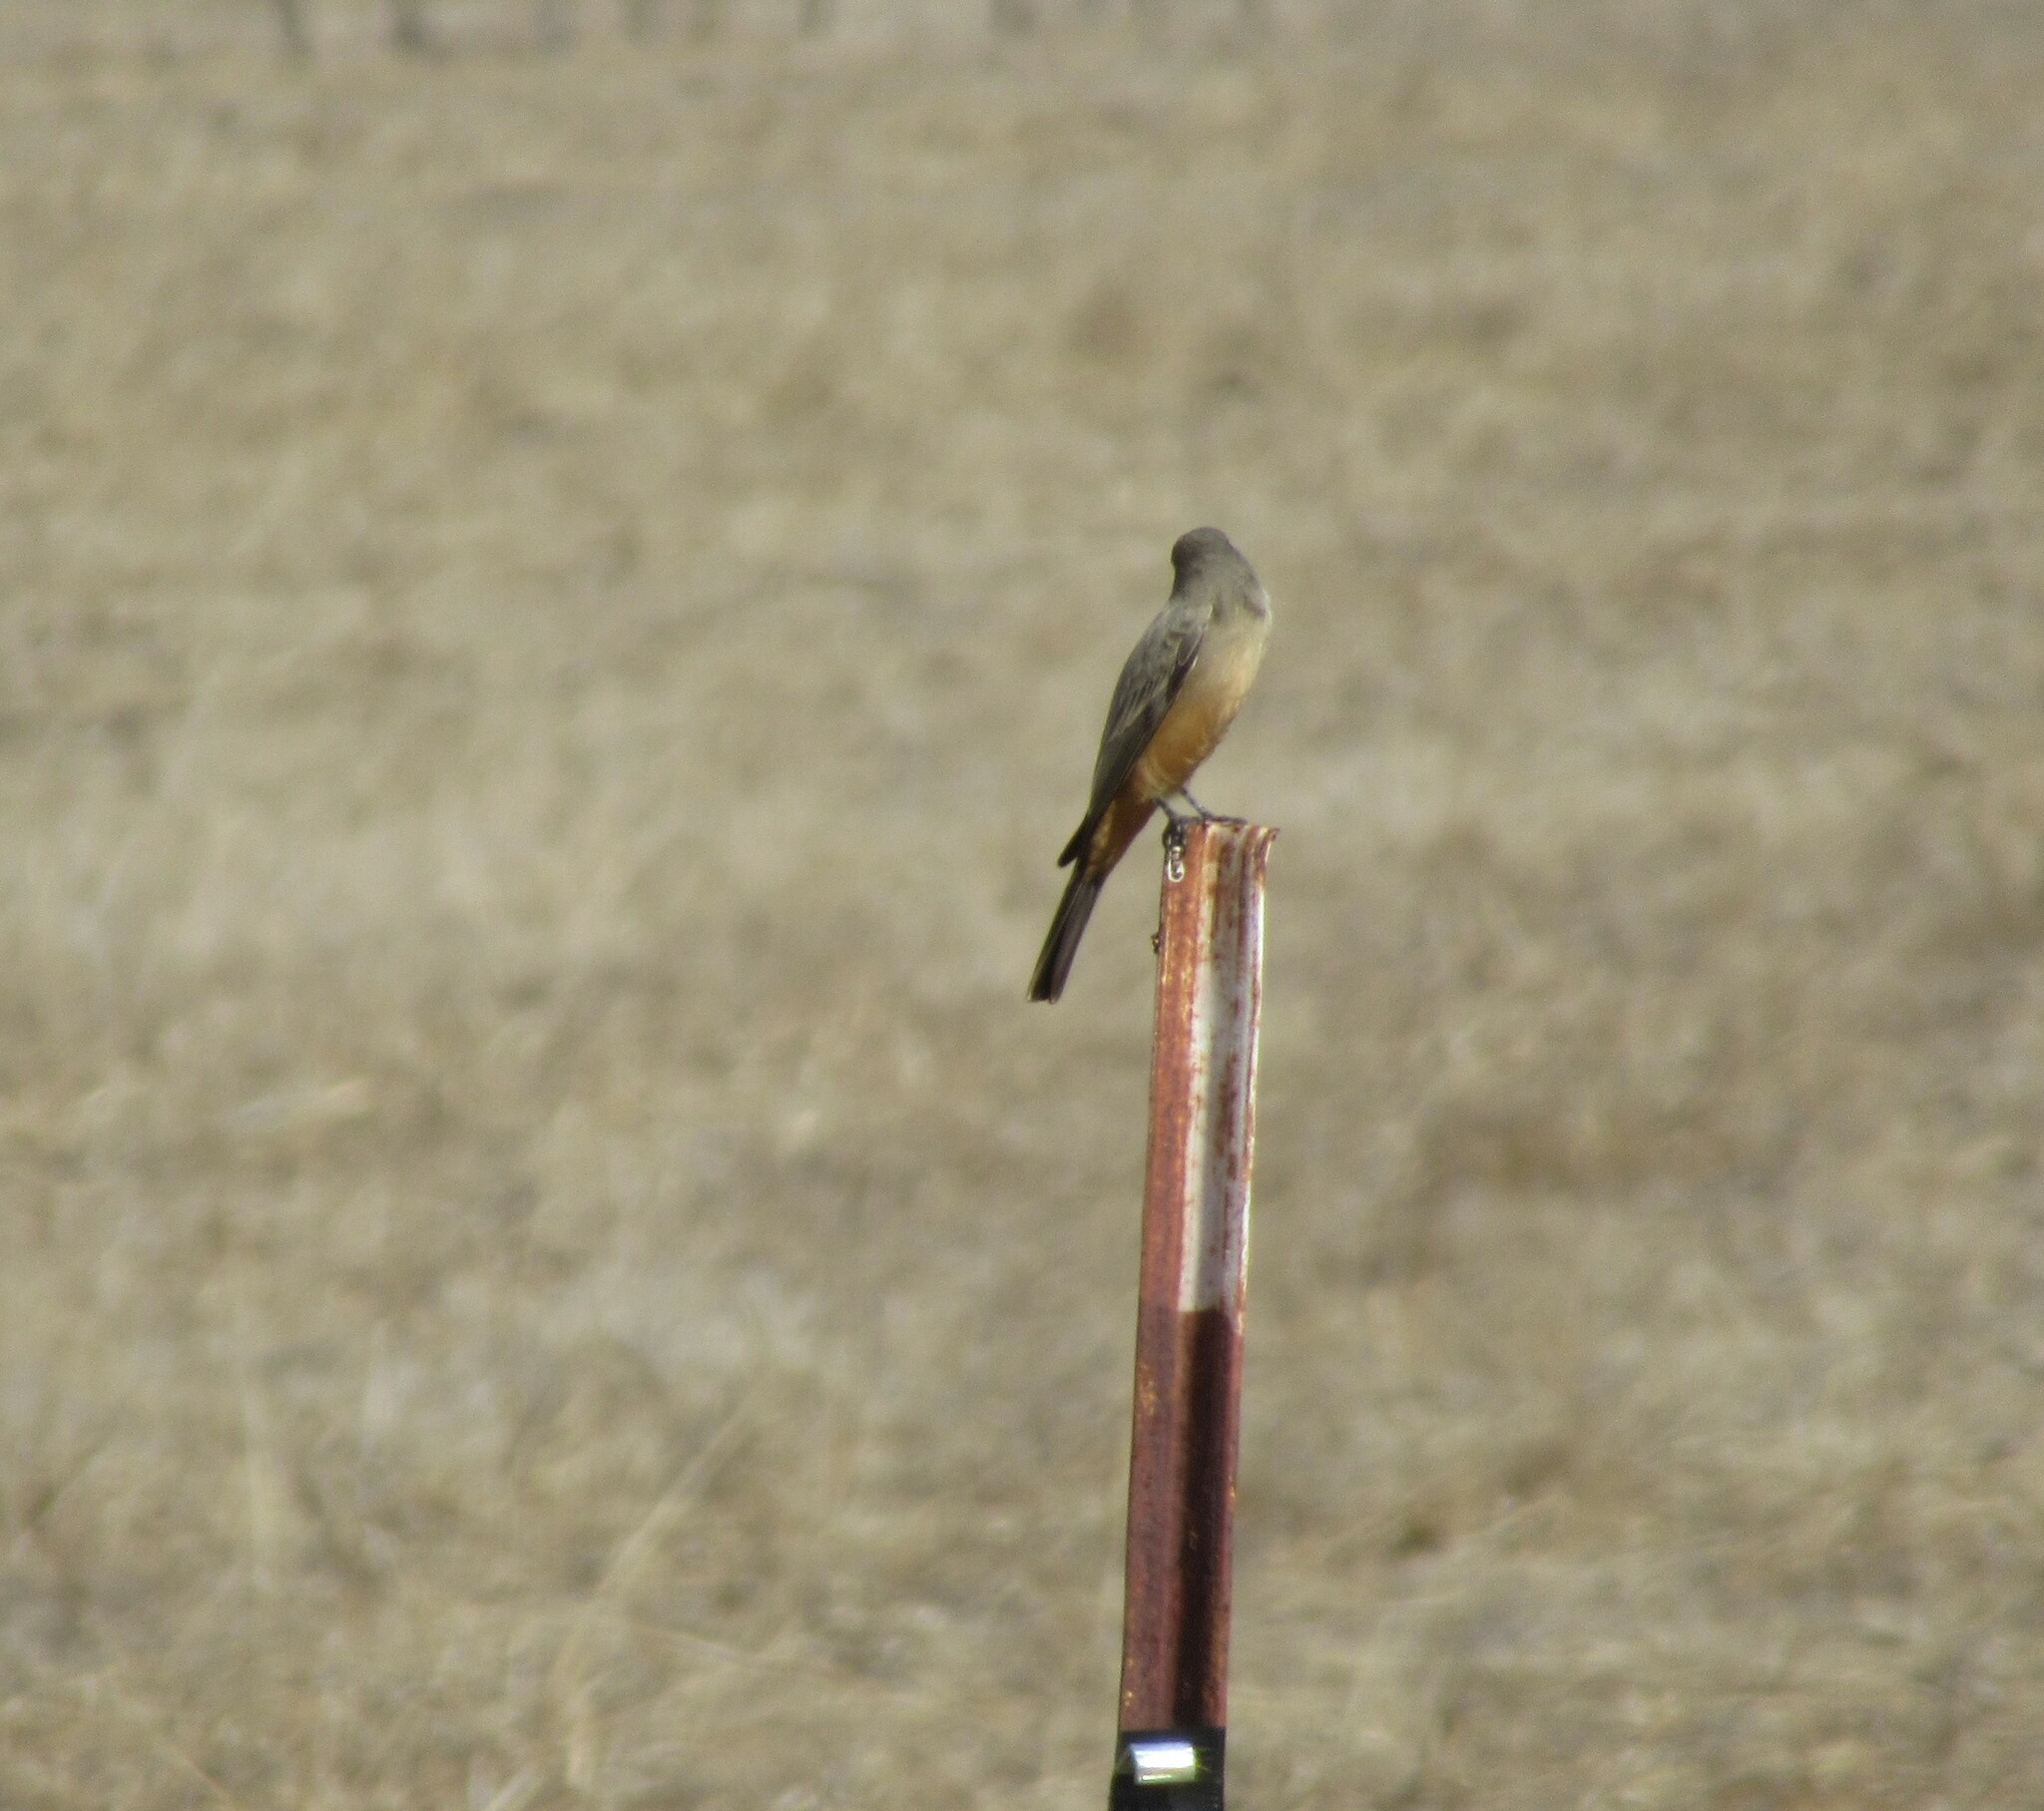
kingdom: Animalia
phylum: Chordata
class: Aves
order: Passeriformes
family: Tyrannidae
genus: Sayornis
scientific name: Sayornis saya
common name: Say's phoebe
